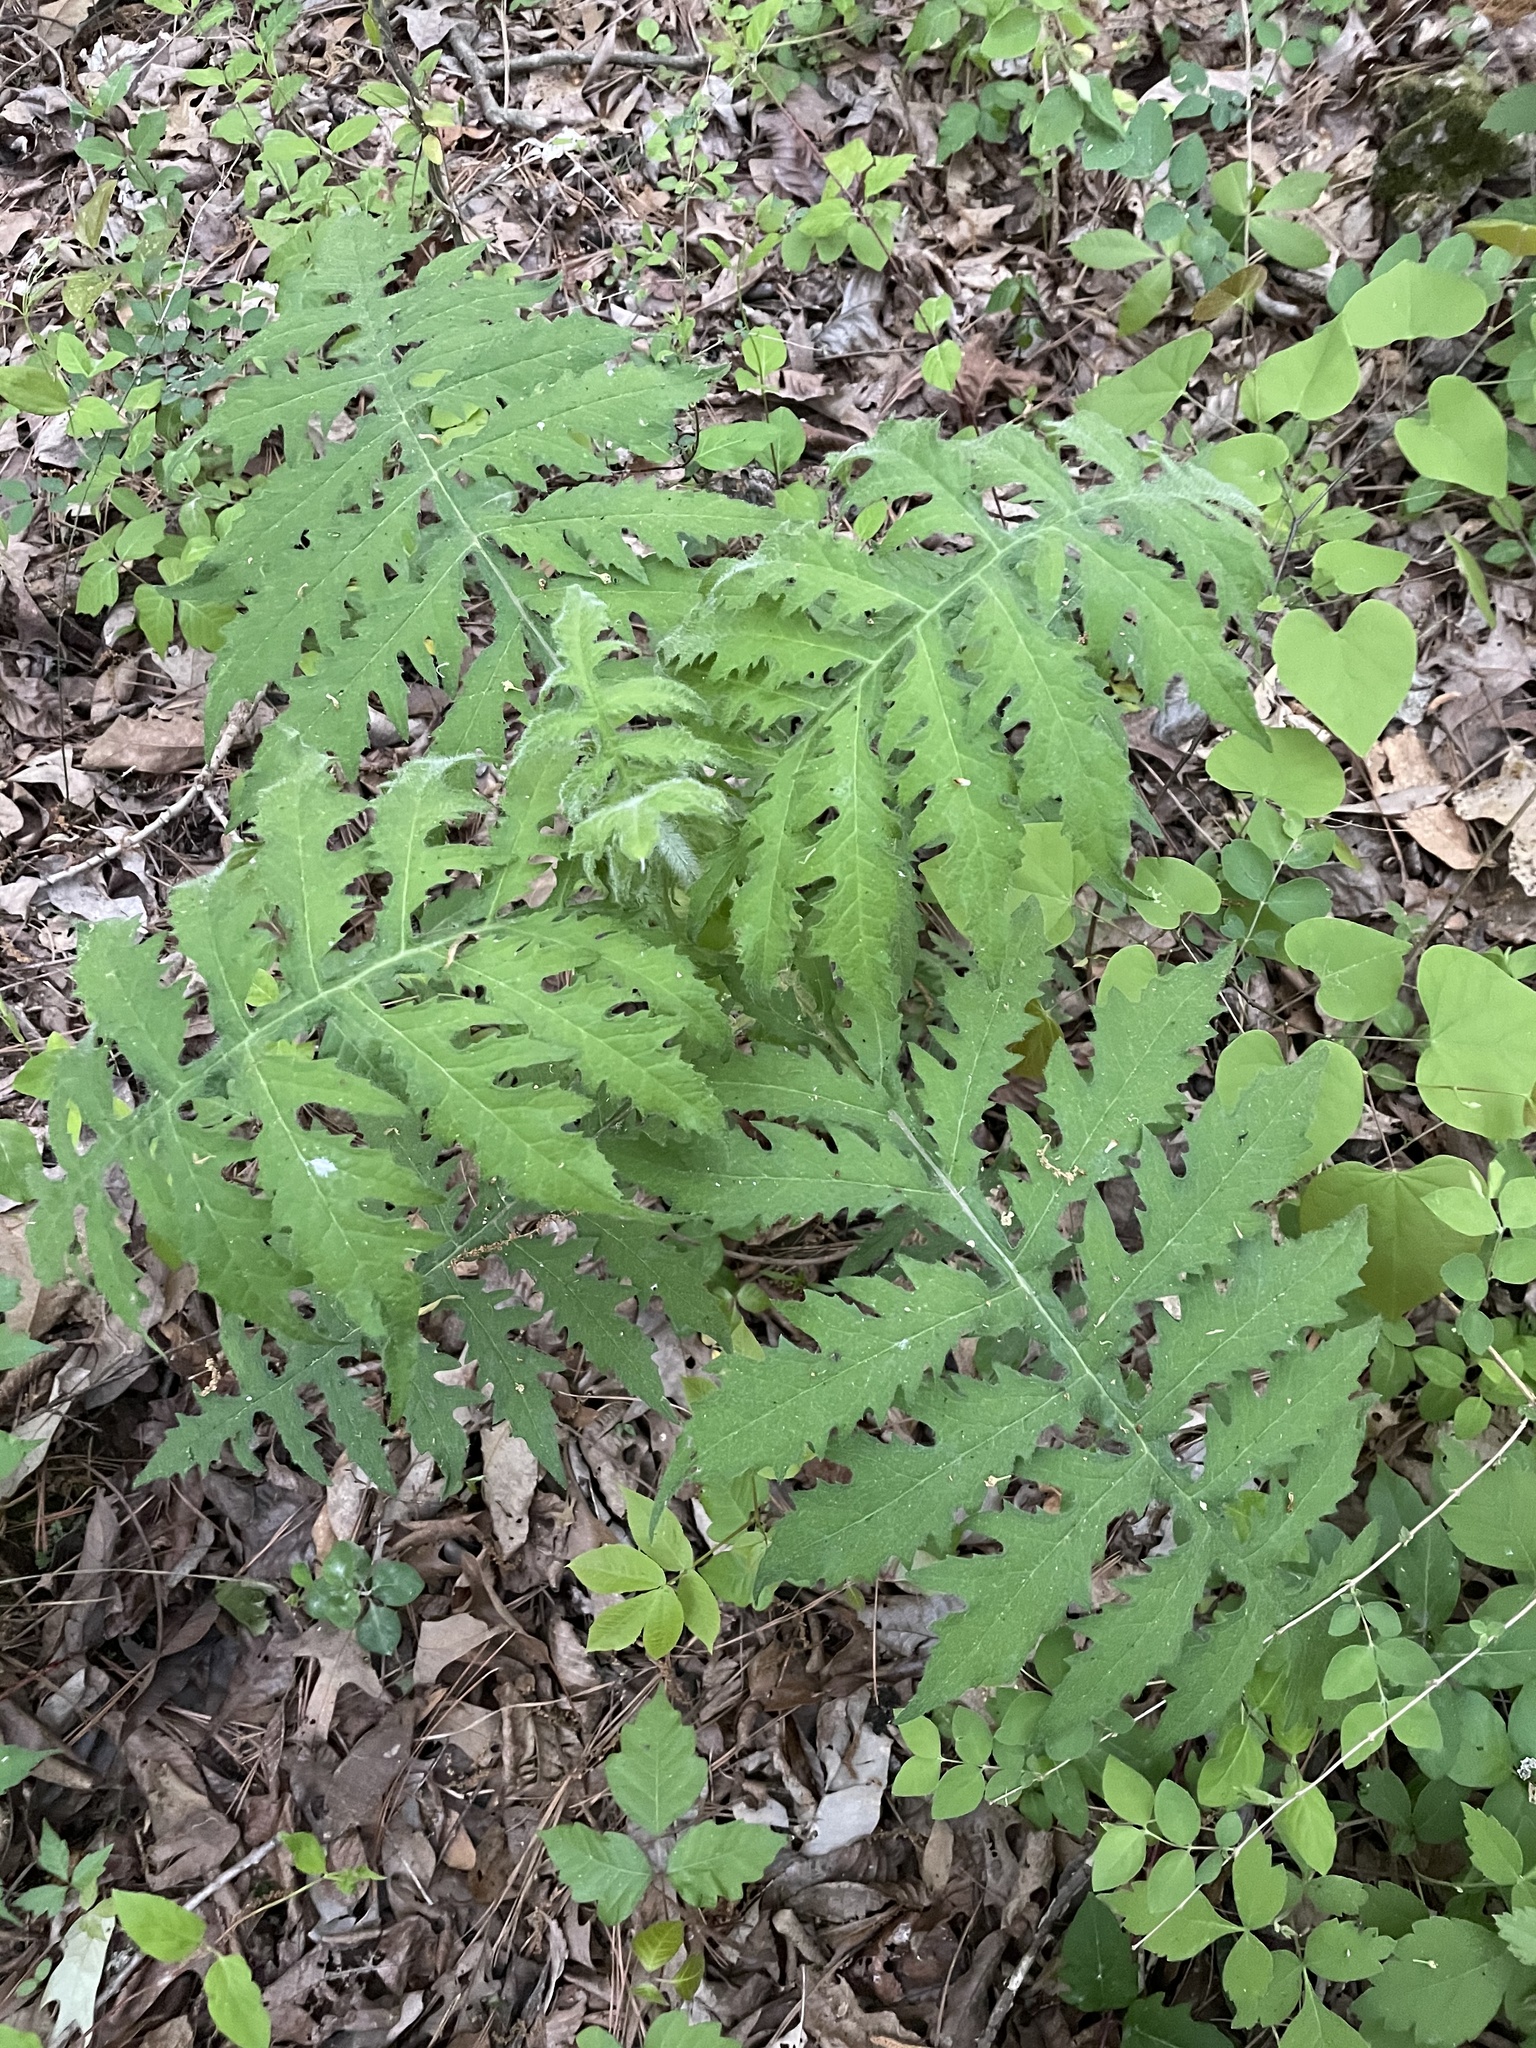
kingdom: Plantae
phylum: Tracheophyta
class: Magnoliopsida
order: Asterales
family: Asteraceae
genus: Polymnia
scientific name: Polymnia johnbeckii
